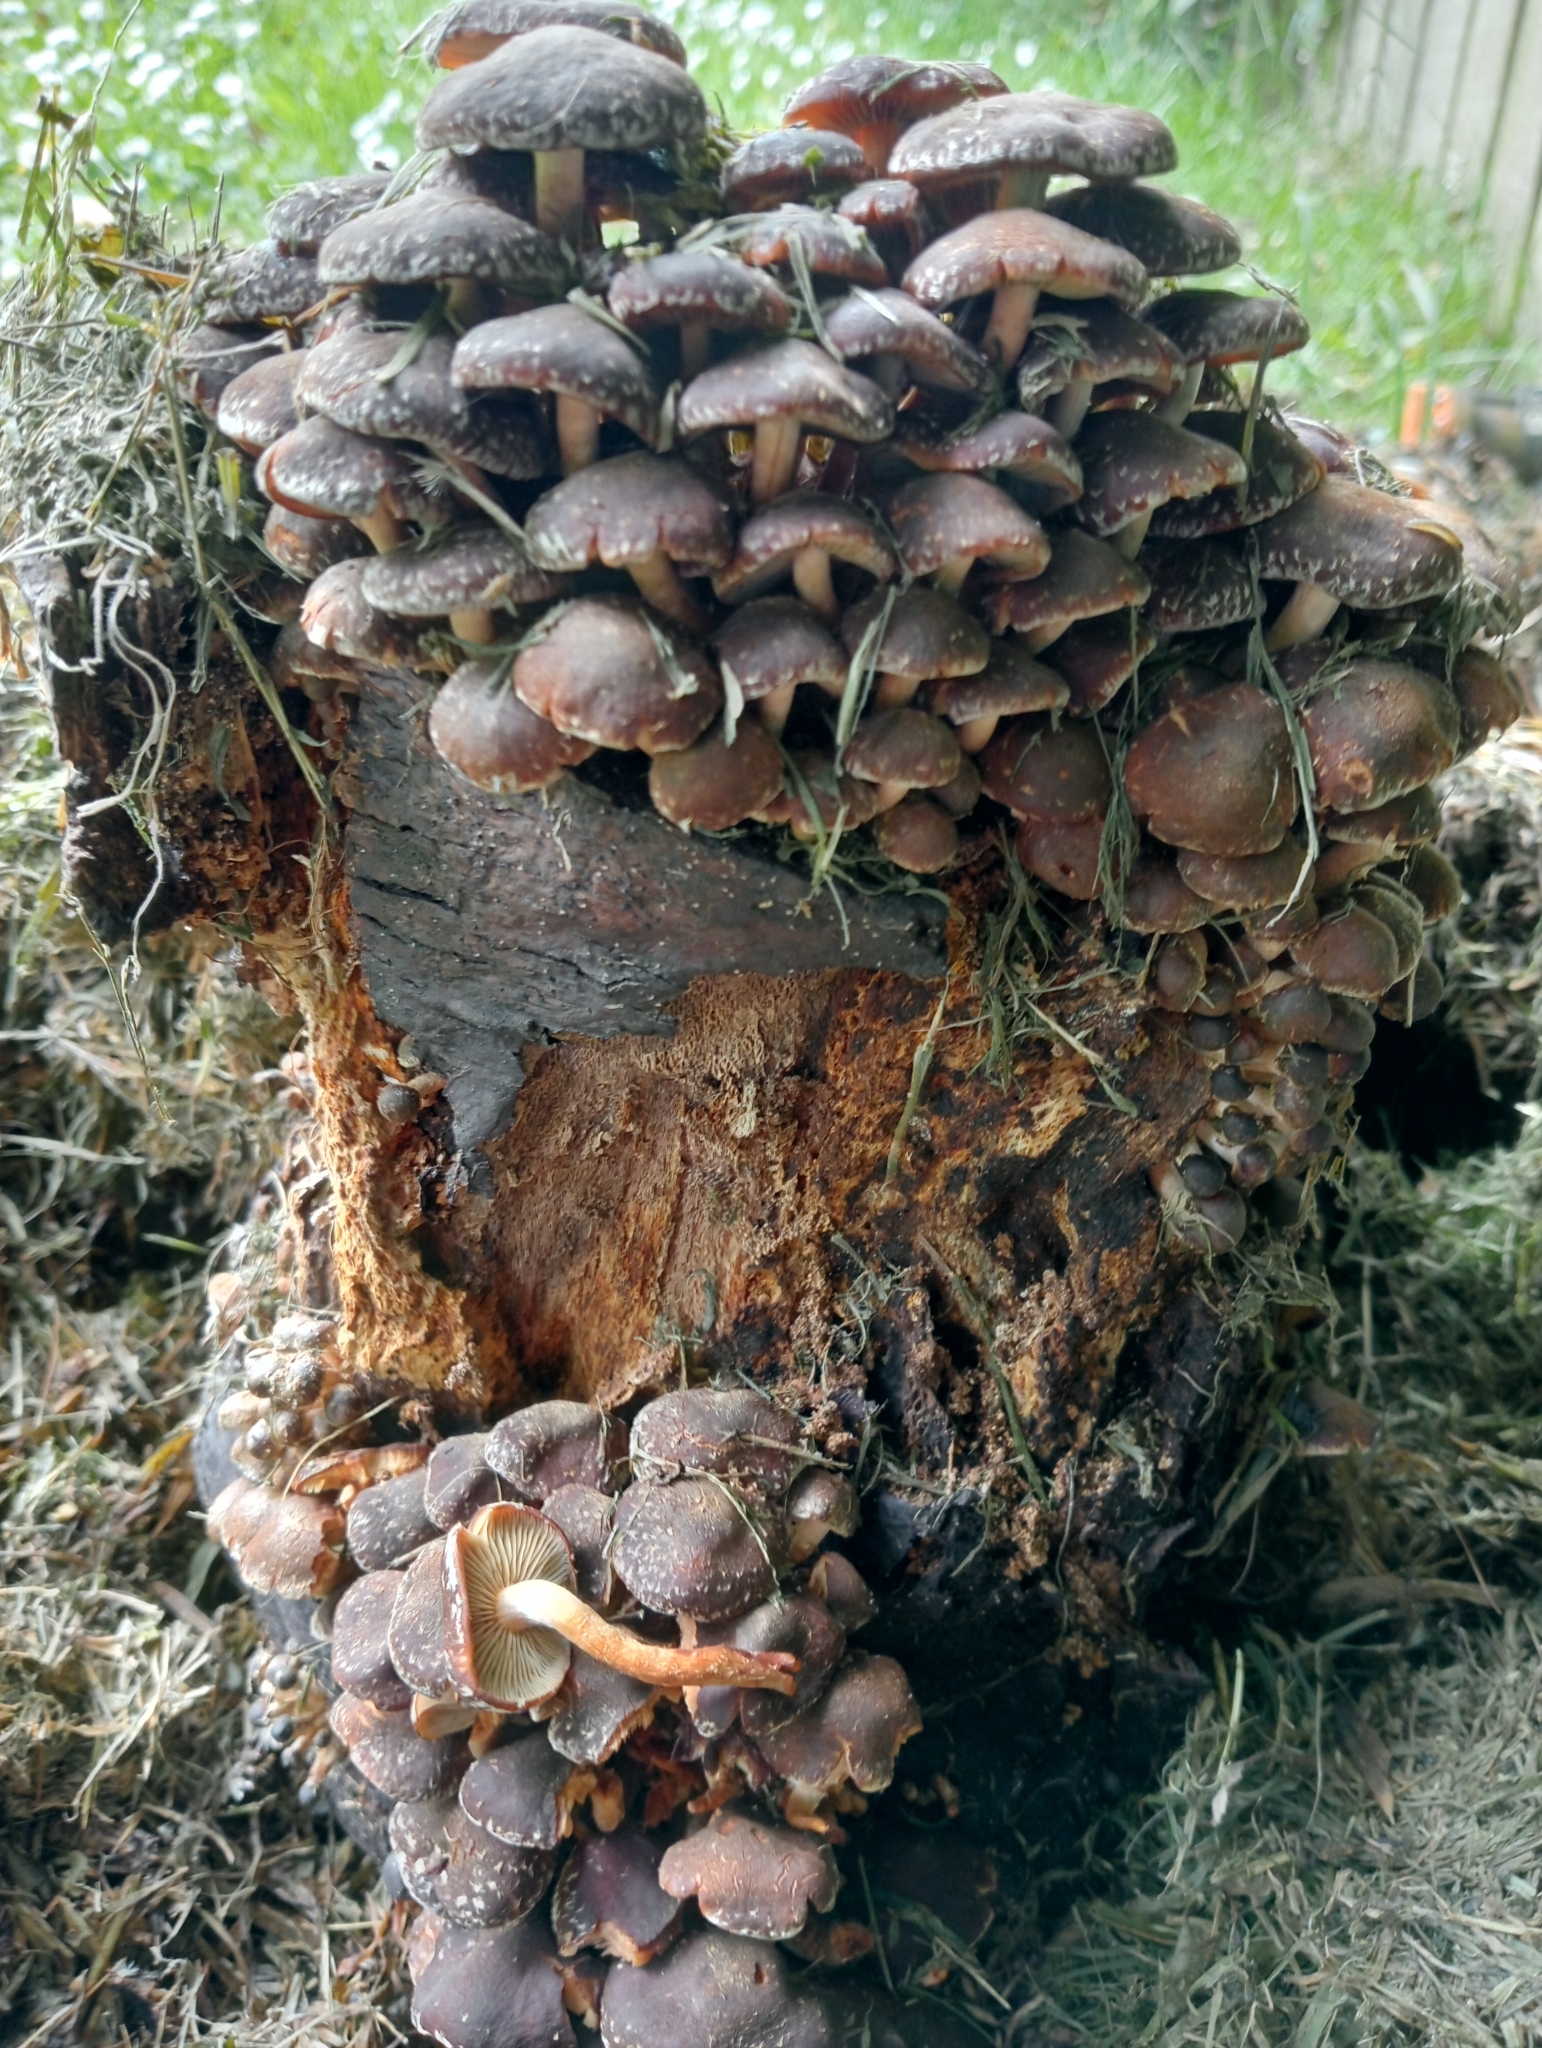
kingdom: Fungi
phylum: Basidiomycota
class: Agaricomycetes
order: Agaricales
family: Strophariaceae
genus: Hypholoma
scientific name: Hypholoma brunneum
